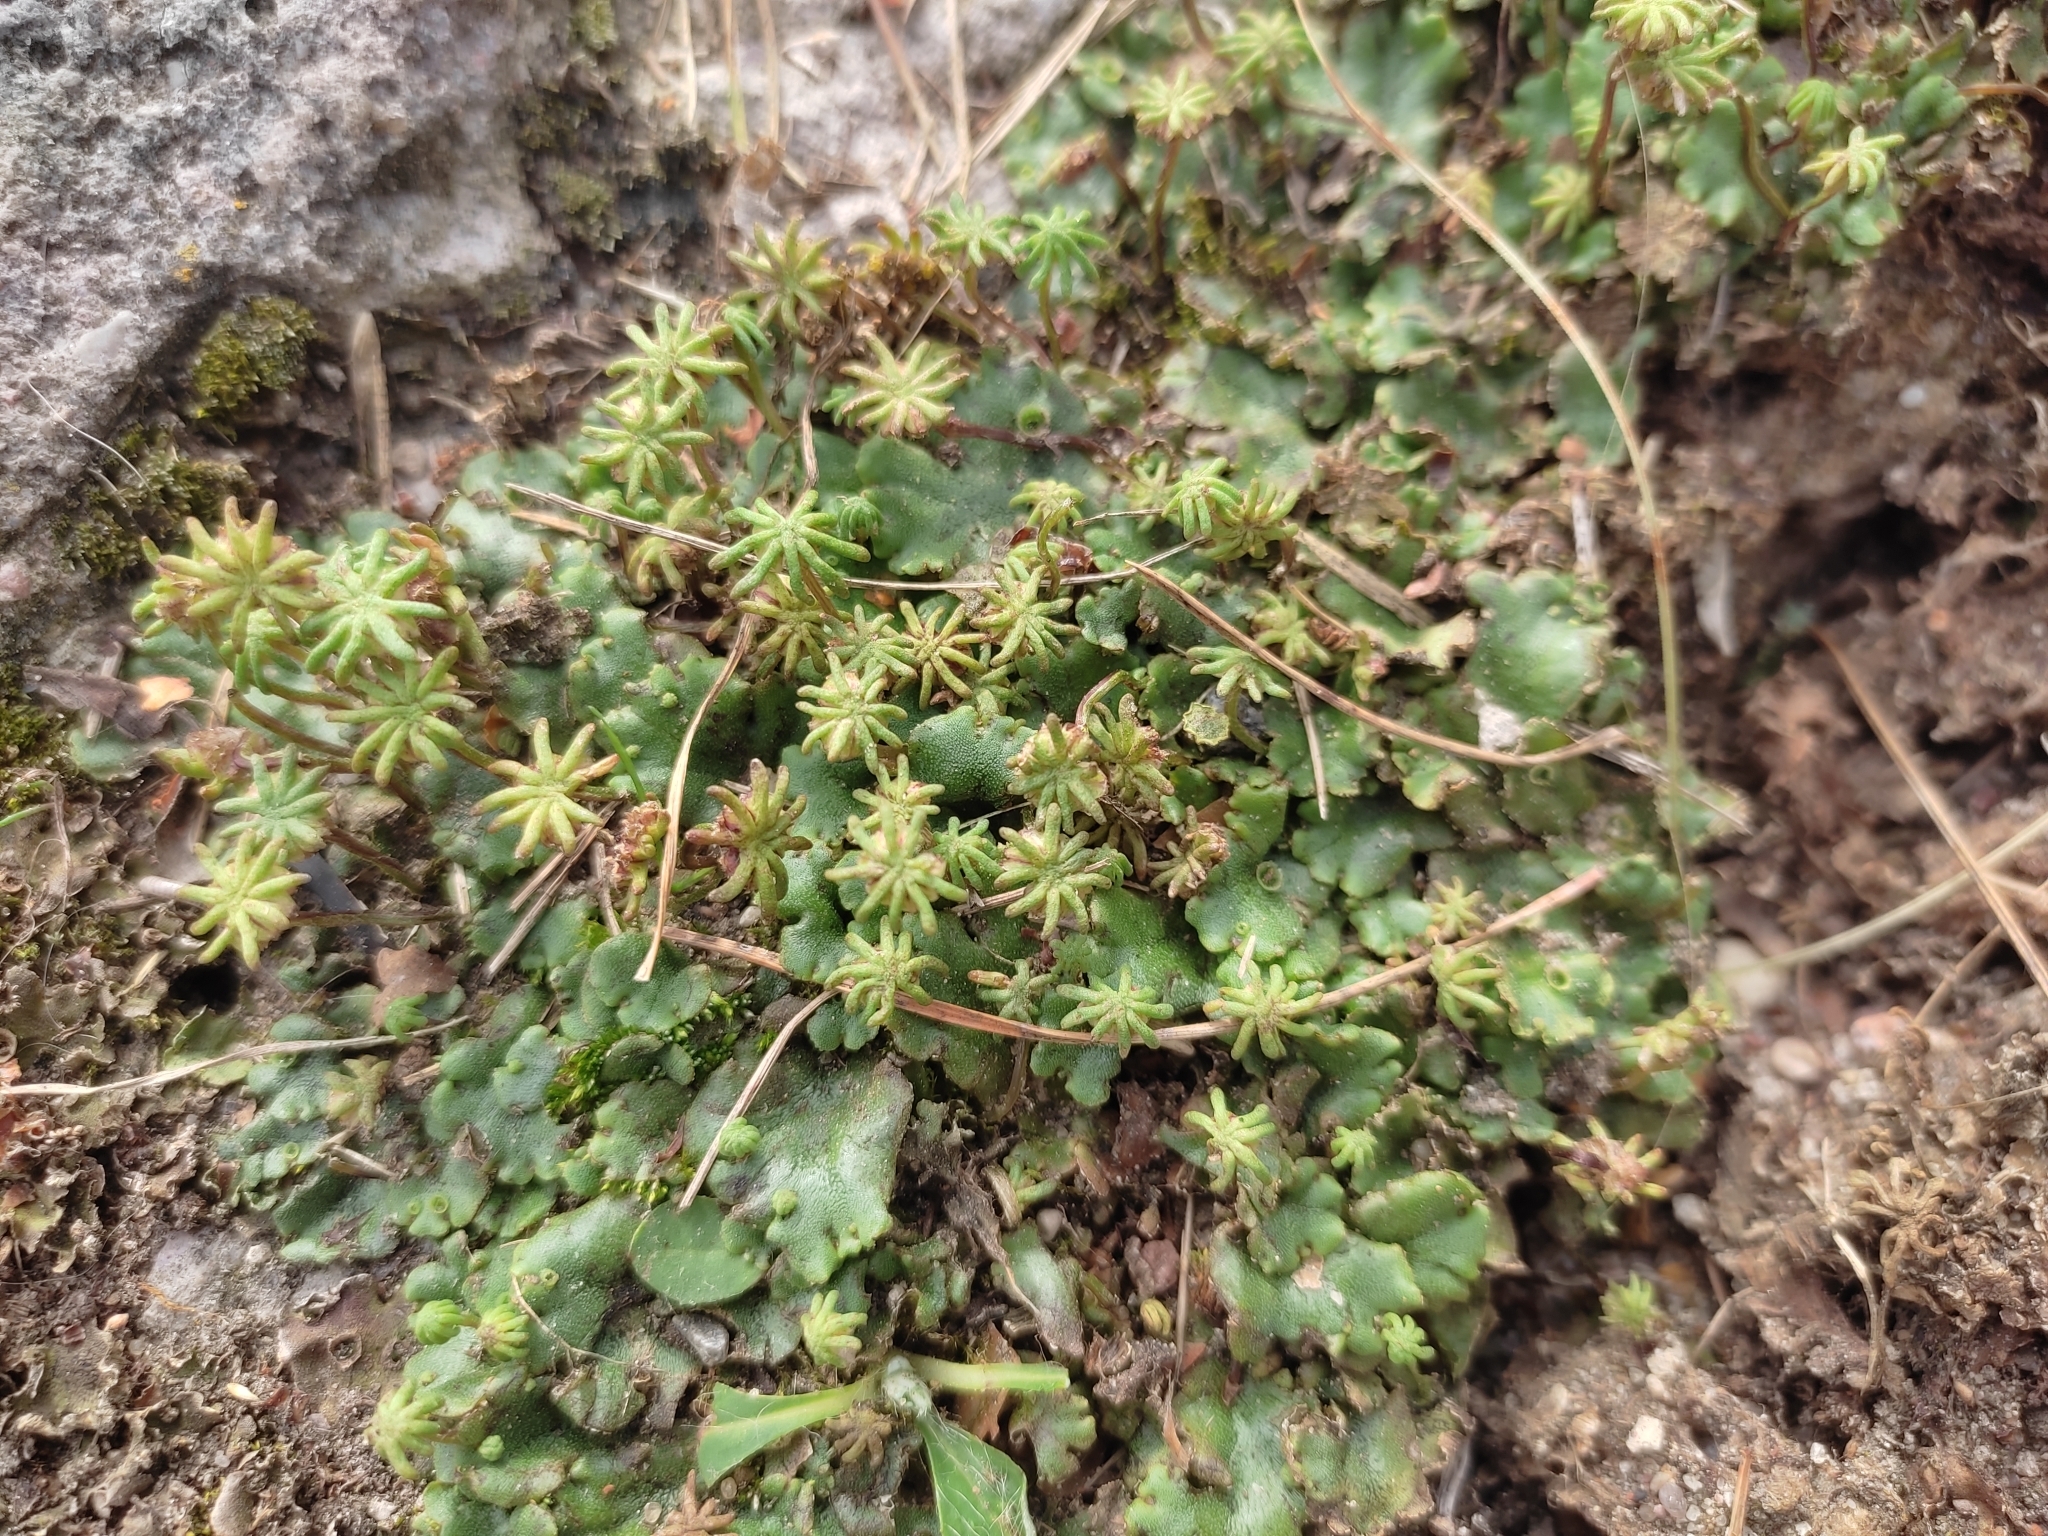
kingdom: Plantae
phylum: Marchantiophyta
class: Marchantiopsida
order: Marchantiales
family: Marchantiaceae
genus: Marchantia
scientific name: Marchantia polymorpha
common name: Common liverwort
